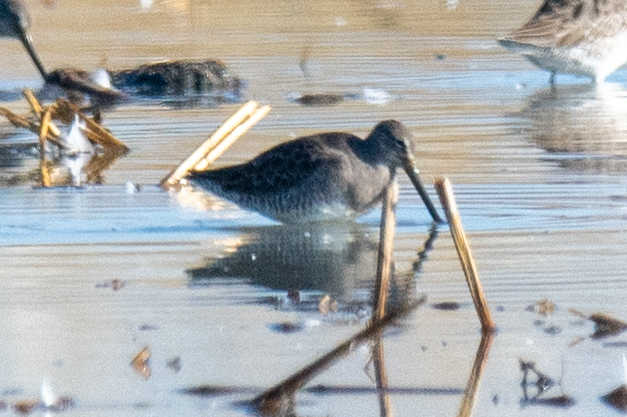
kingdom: Animalia
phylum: Chordata
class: Aves
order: Charadriiformes
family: Scolopacidae
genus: Limnodromus
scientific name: Limnodromus scolopaceus
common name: Long-billed dowitcher
